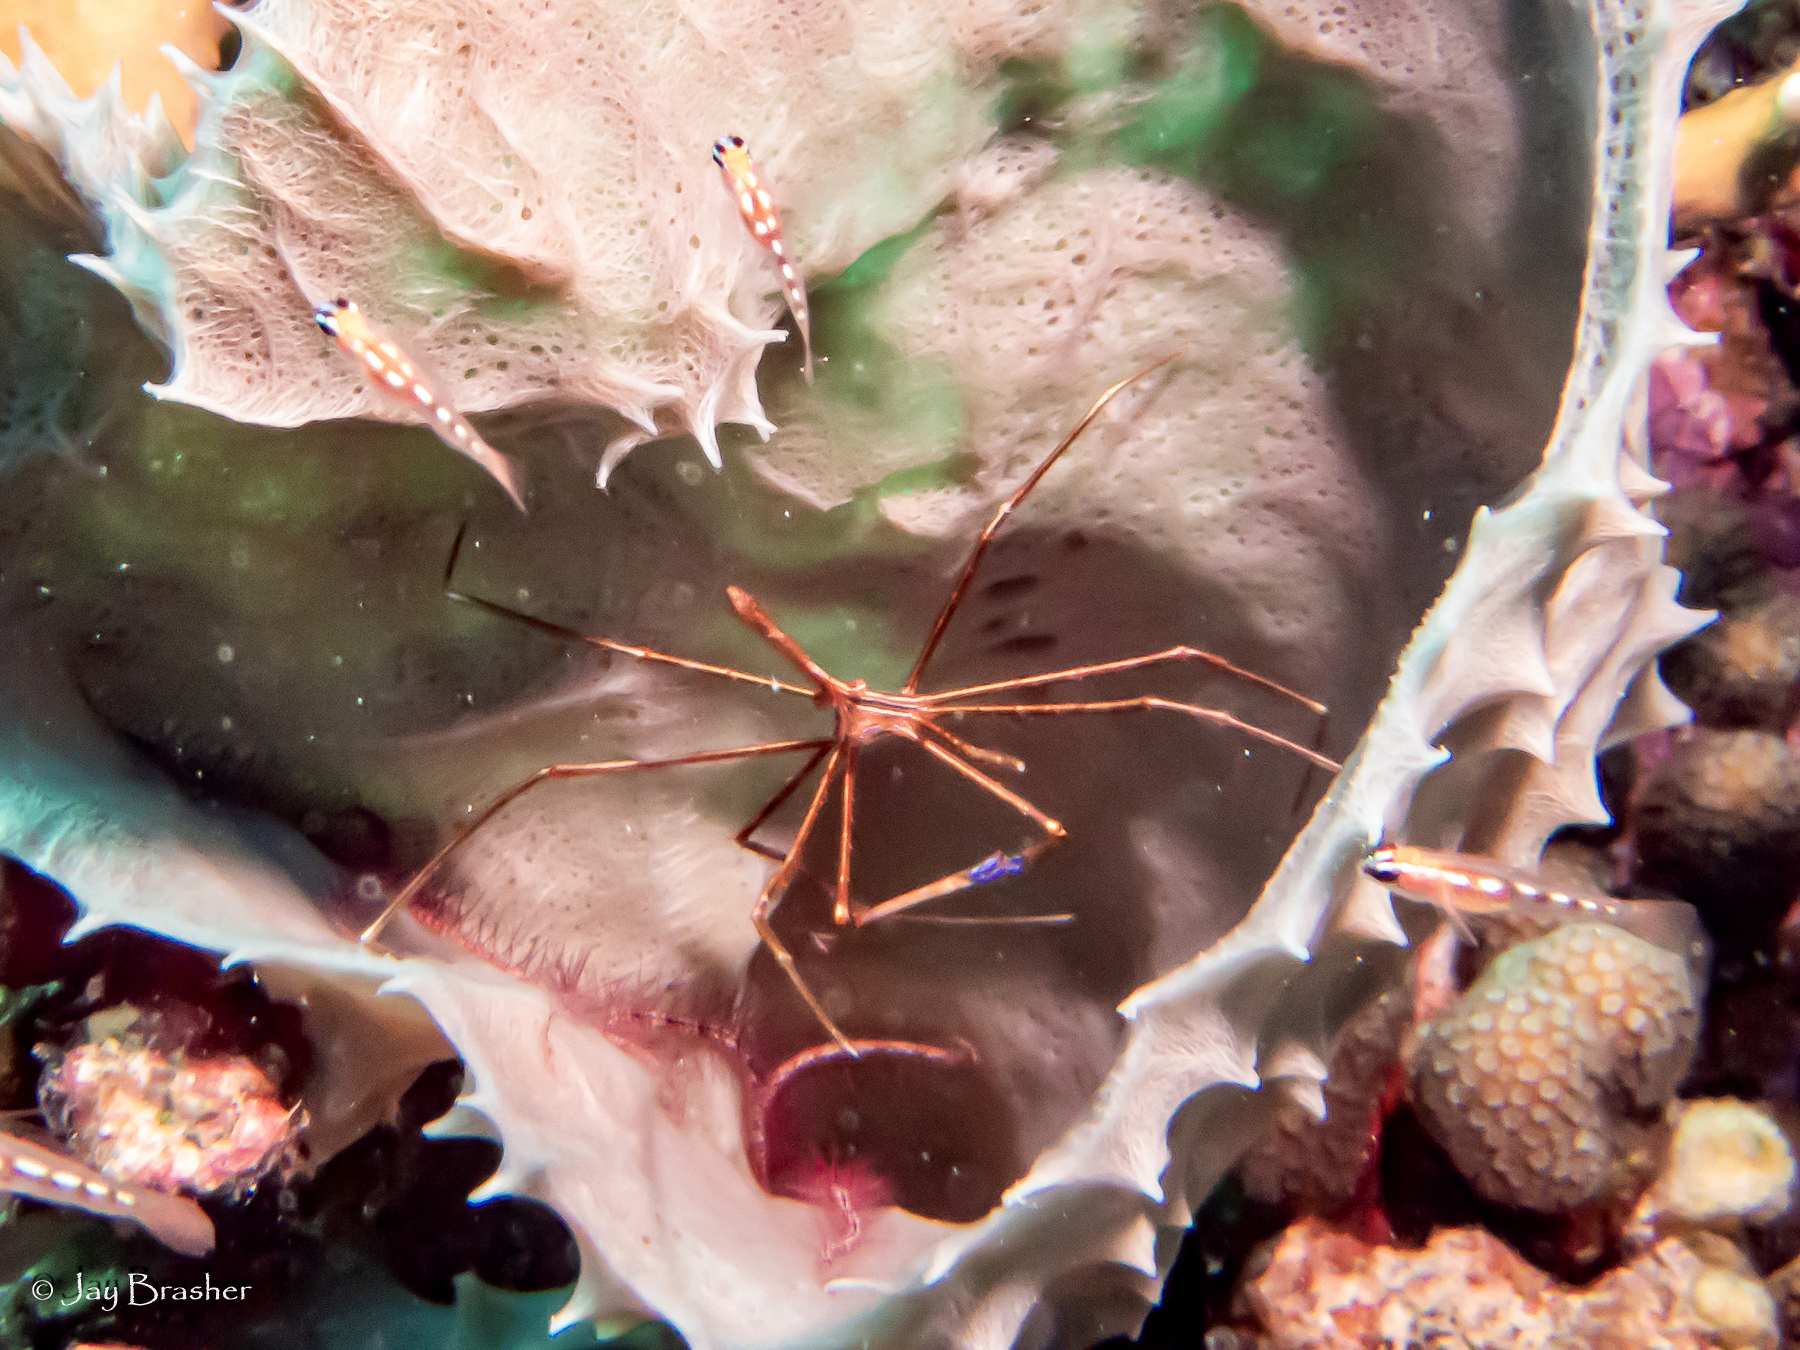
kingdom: Animalia
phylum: Arthropoda
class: Malacostraca
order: Decapoda
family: Inachoididae
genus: Stenorhynchus
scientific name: Stenorhynchus seticornis
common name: Arrow crab
